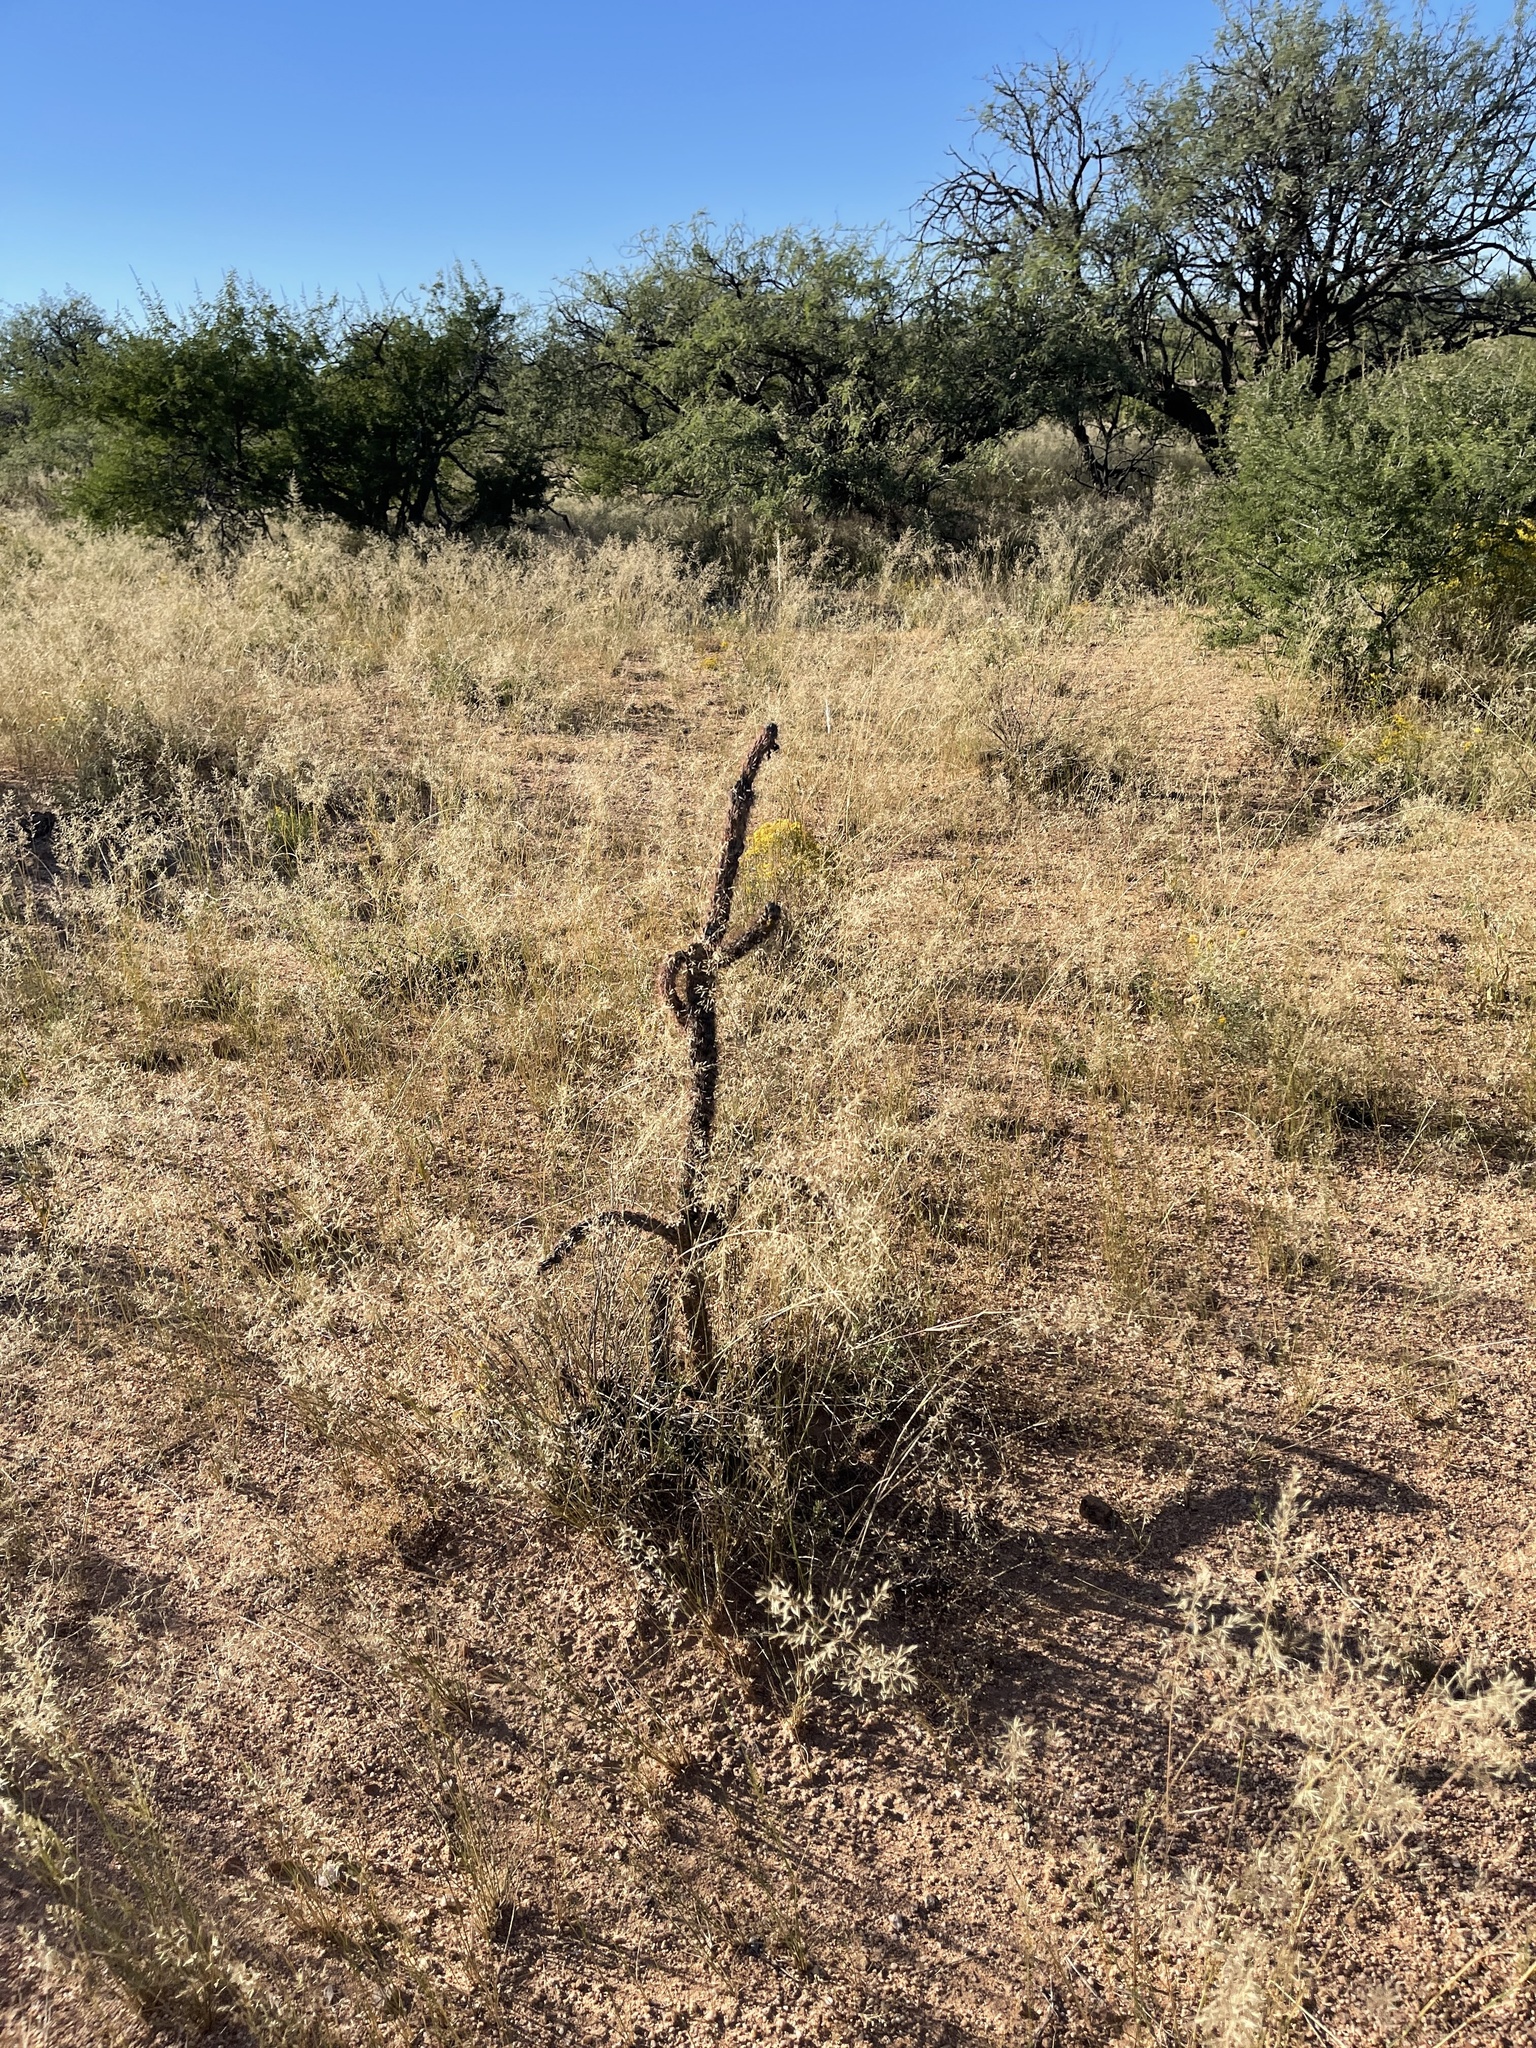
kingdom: Plantae
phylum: Tracheophyta
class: Magnoliopsida
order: Caryophyllales
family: Cactaceae
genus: Cylindropuntia
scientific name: Cylindropuntia imbricata
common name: Candelabrum cactus
